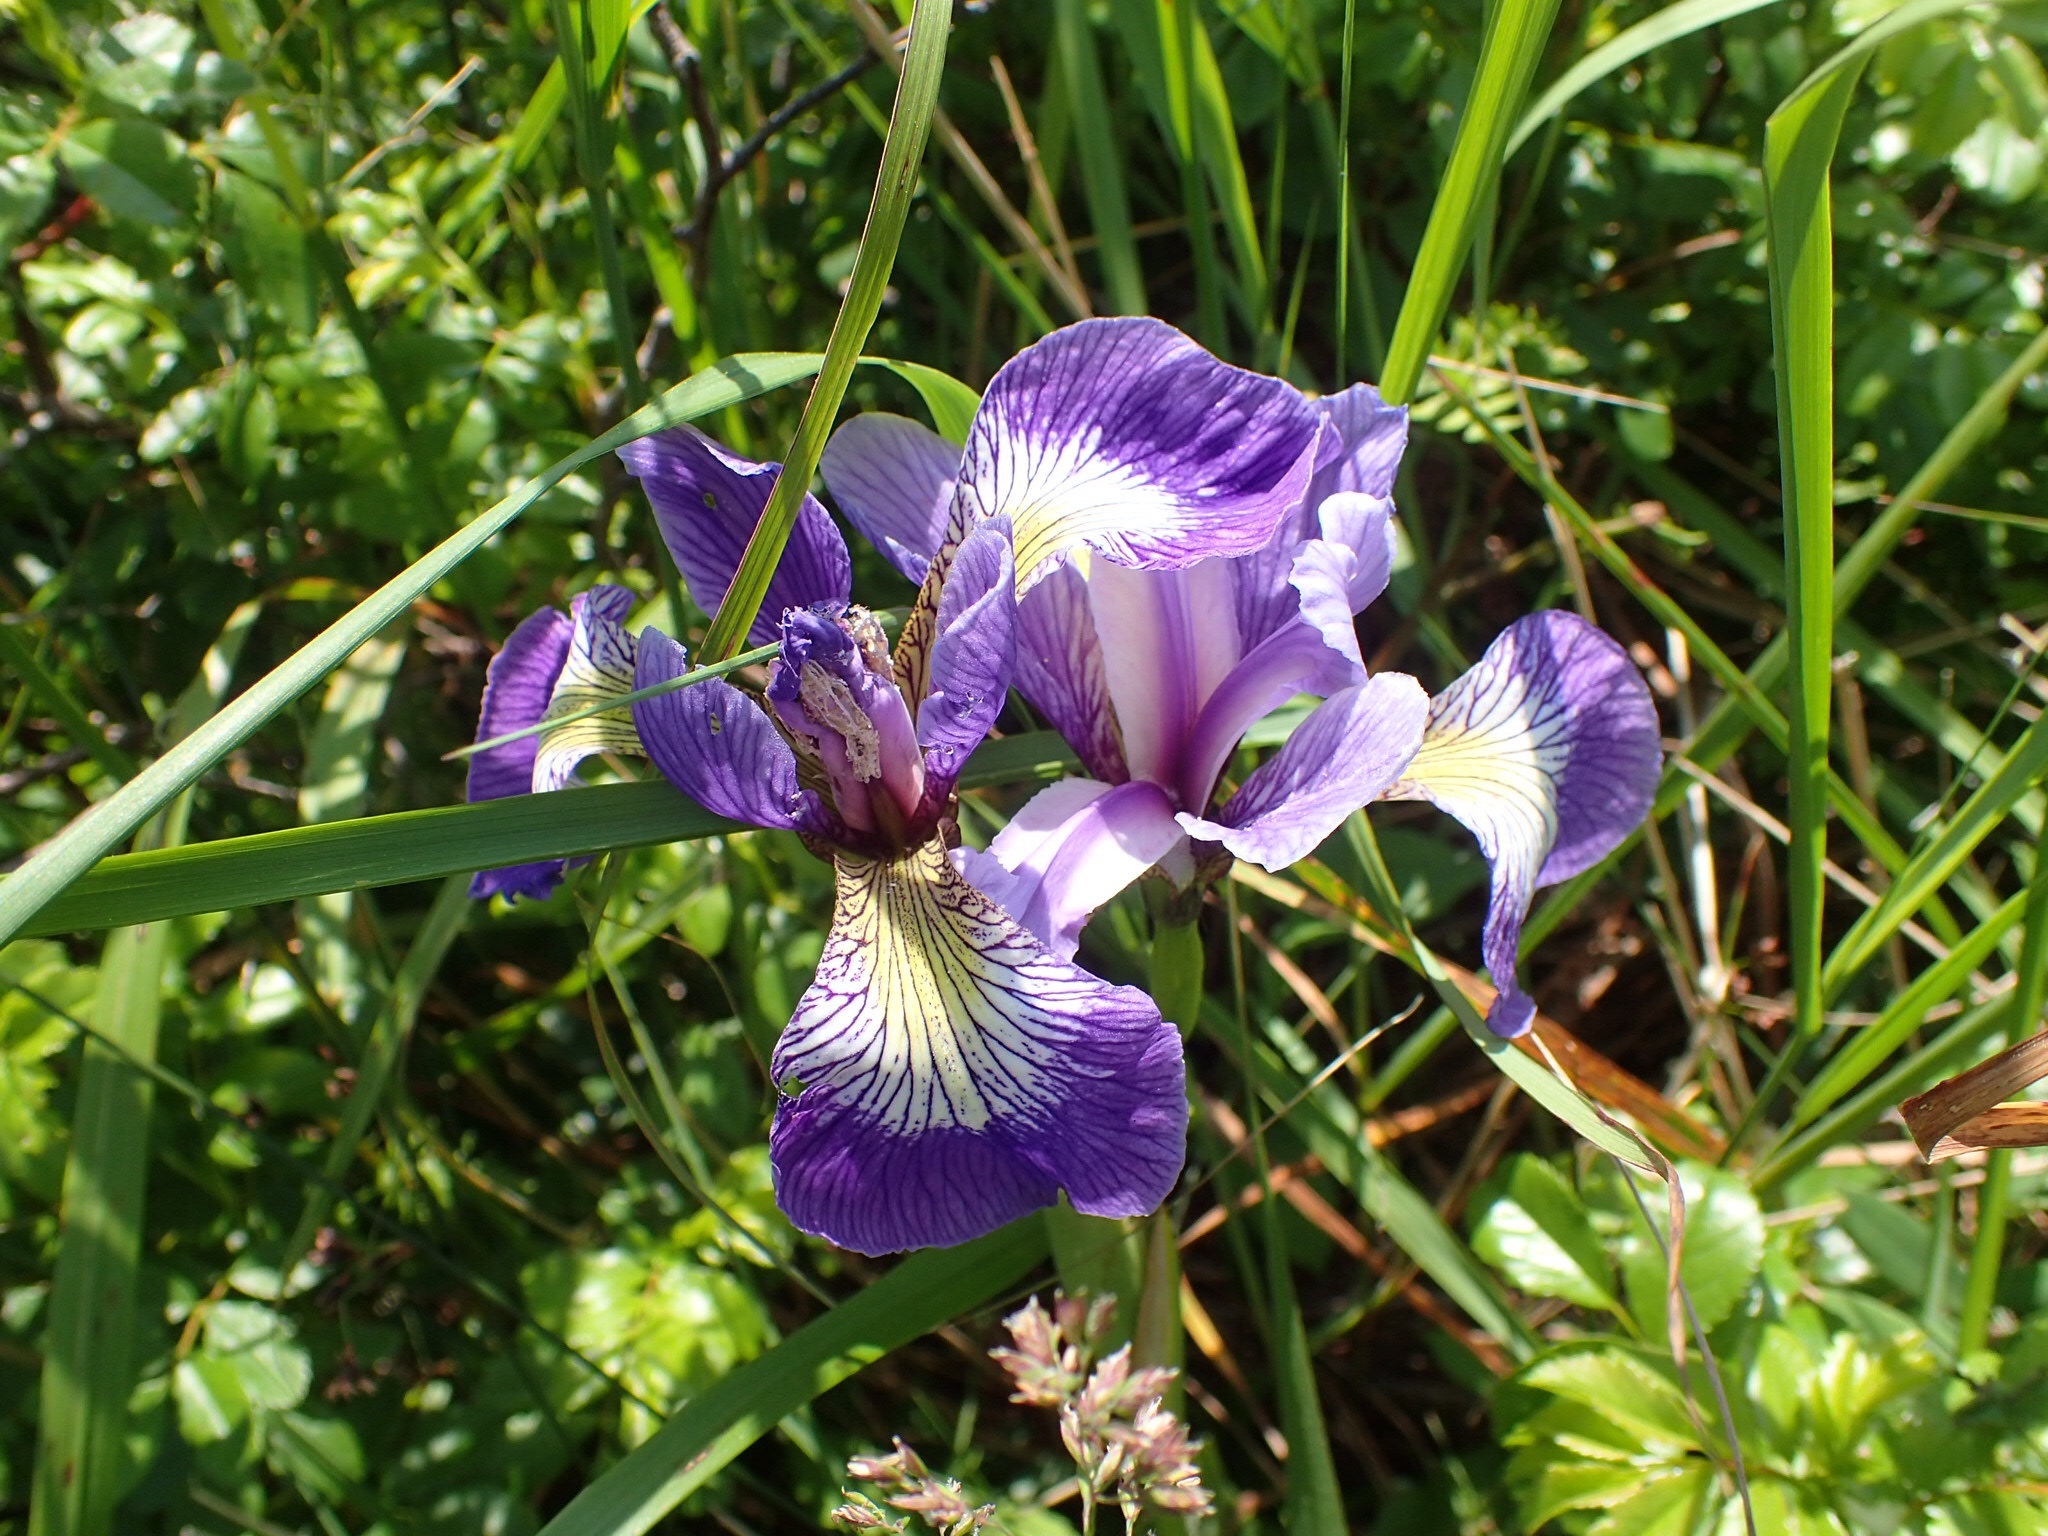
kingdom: Plantae
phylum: Tracheophyta
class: Liliopsida
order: Asparagales
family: Iridaceae
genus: Iris
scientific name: Iris versicolor
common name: Purple iris
